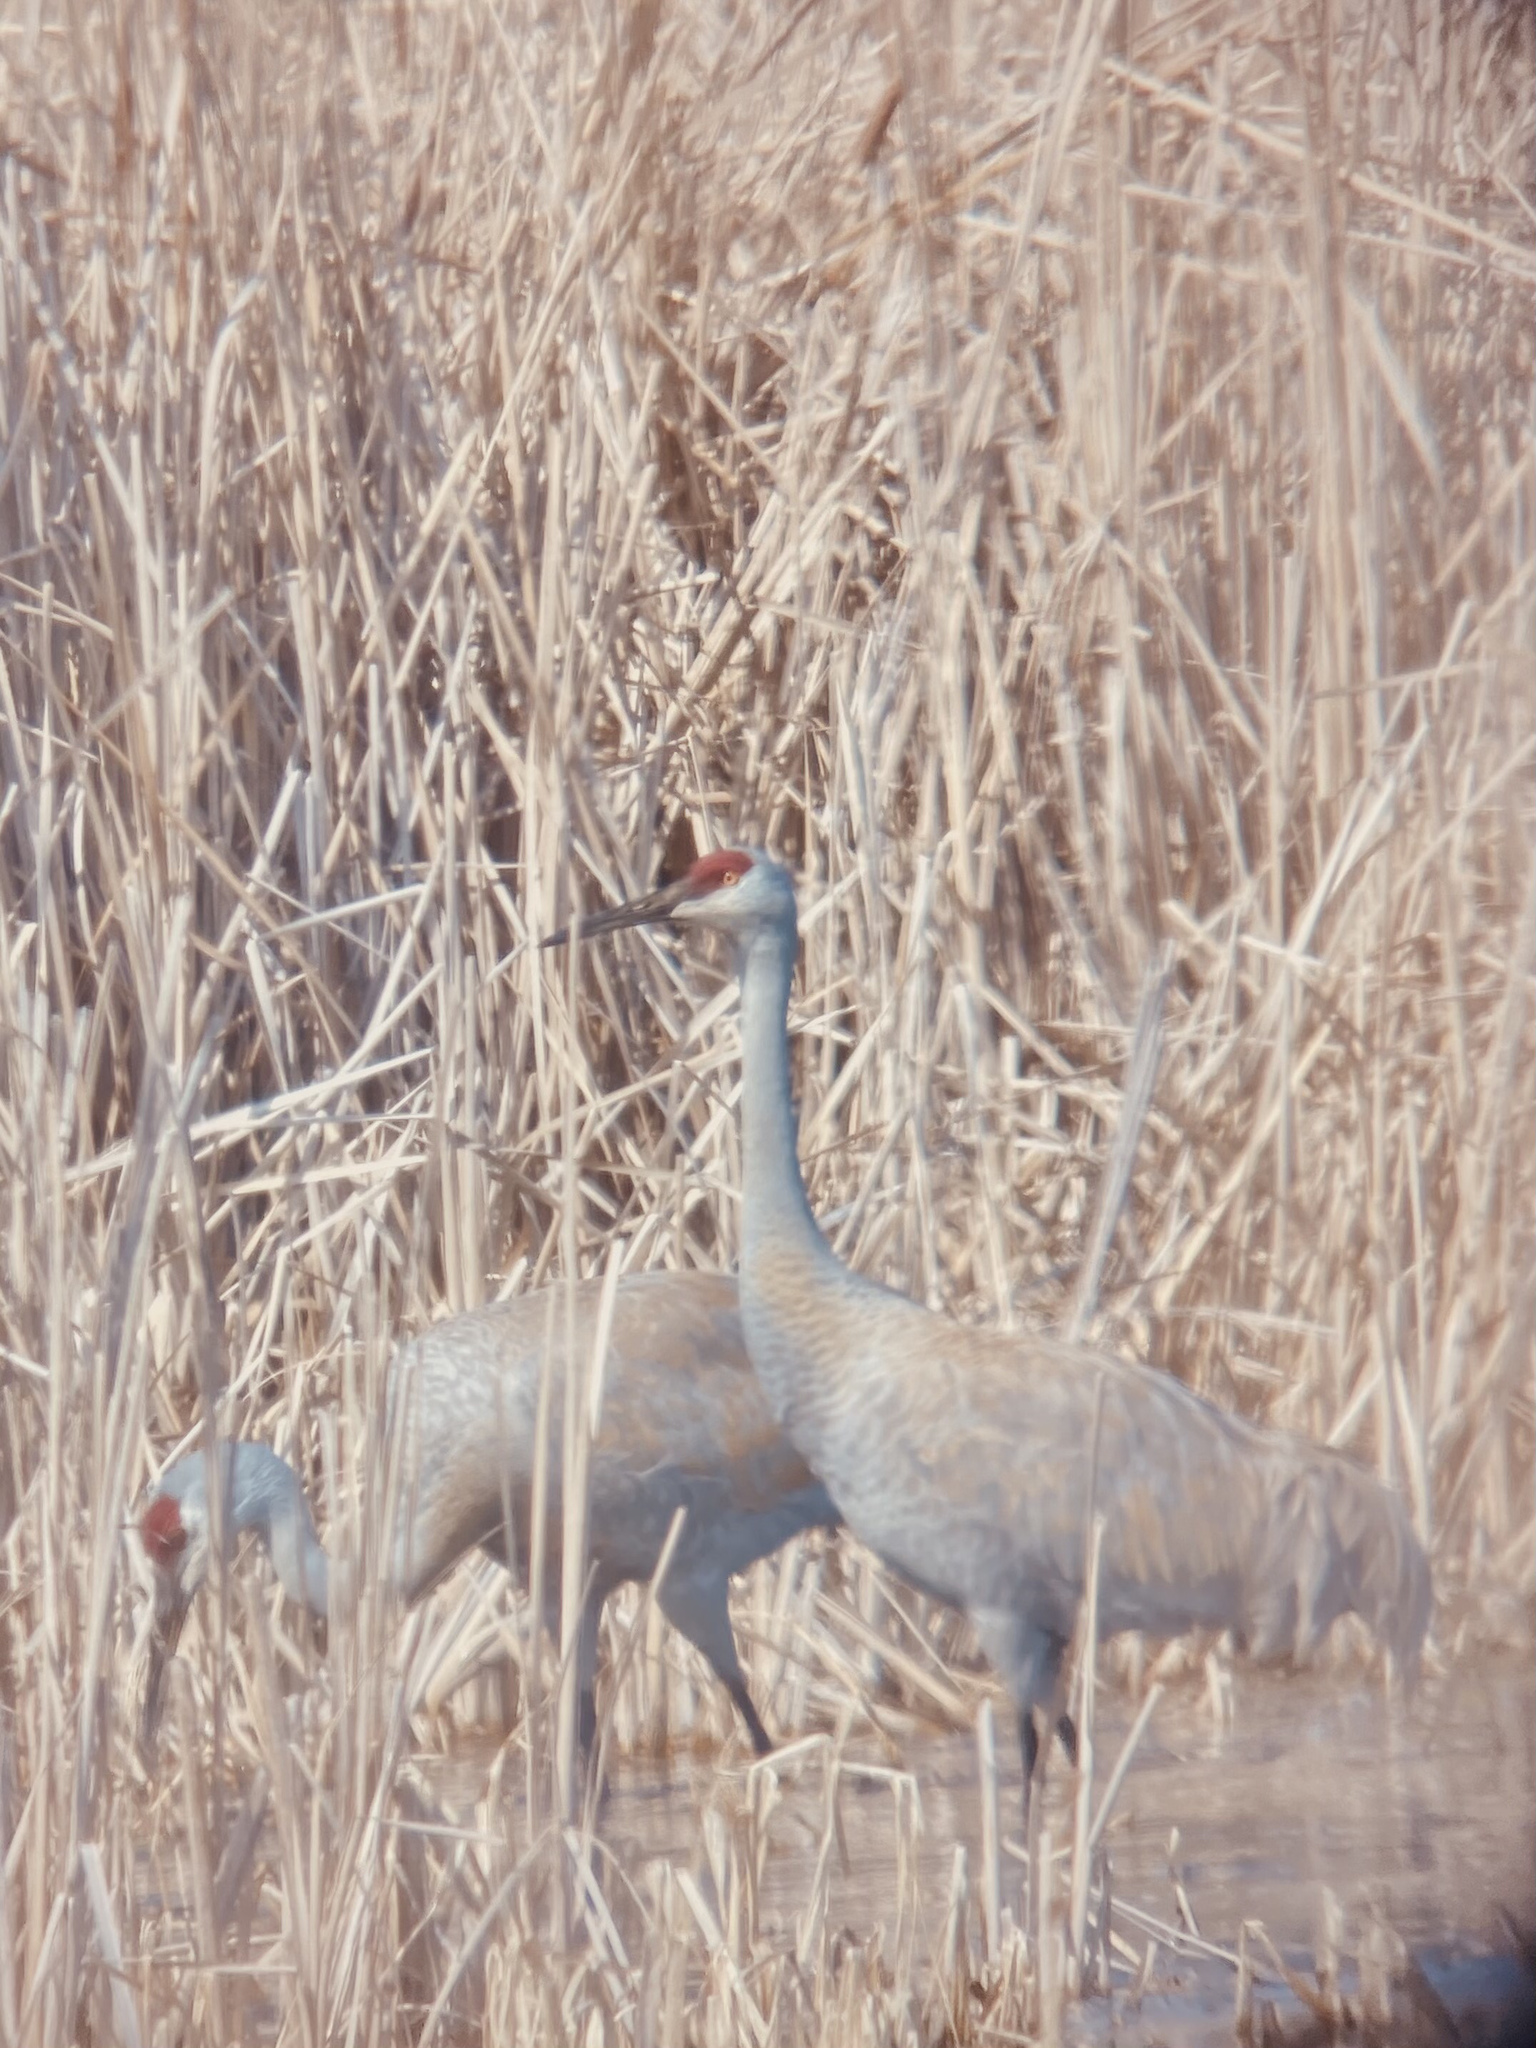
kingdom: Animalia
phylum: Chordata
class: Aves
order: Gruiformes
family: Gruidae
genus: Grus
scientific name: Grus canadensis
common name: Sandhill crane
